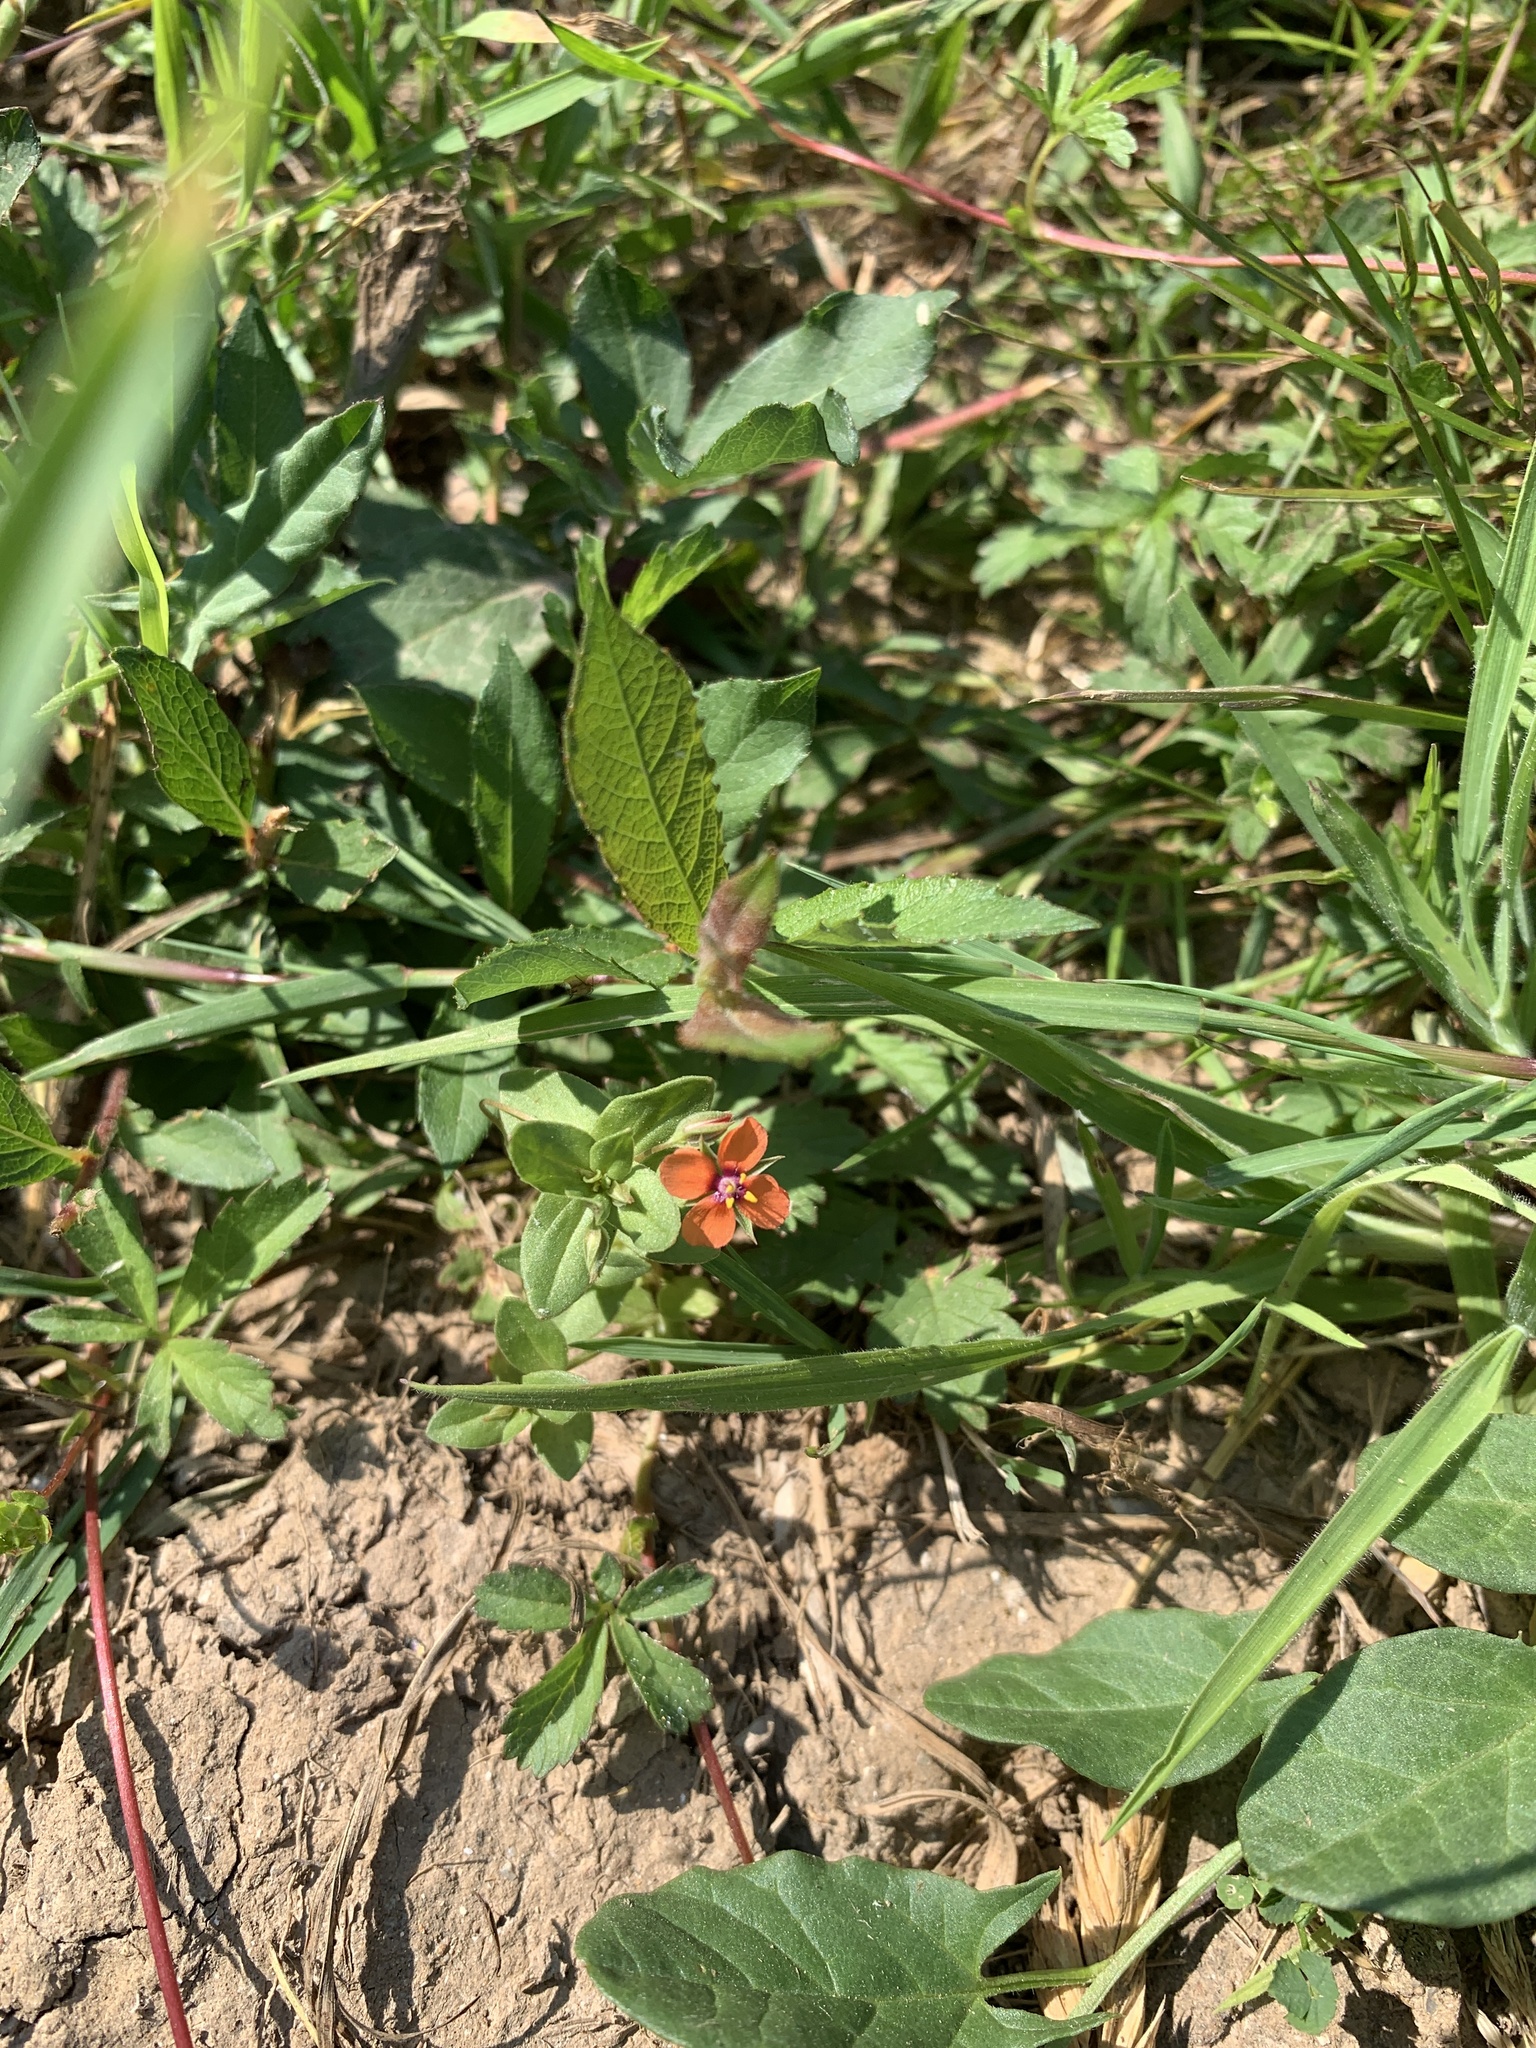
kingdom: Plantae
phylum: Tracheophyta
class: Magnoliopsida
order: Ericales
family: Primulaceae
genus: Lysimachia
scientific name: Lysimachia arvensis
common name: Scarlet pimpernel
